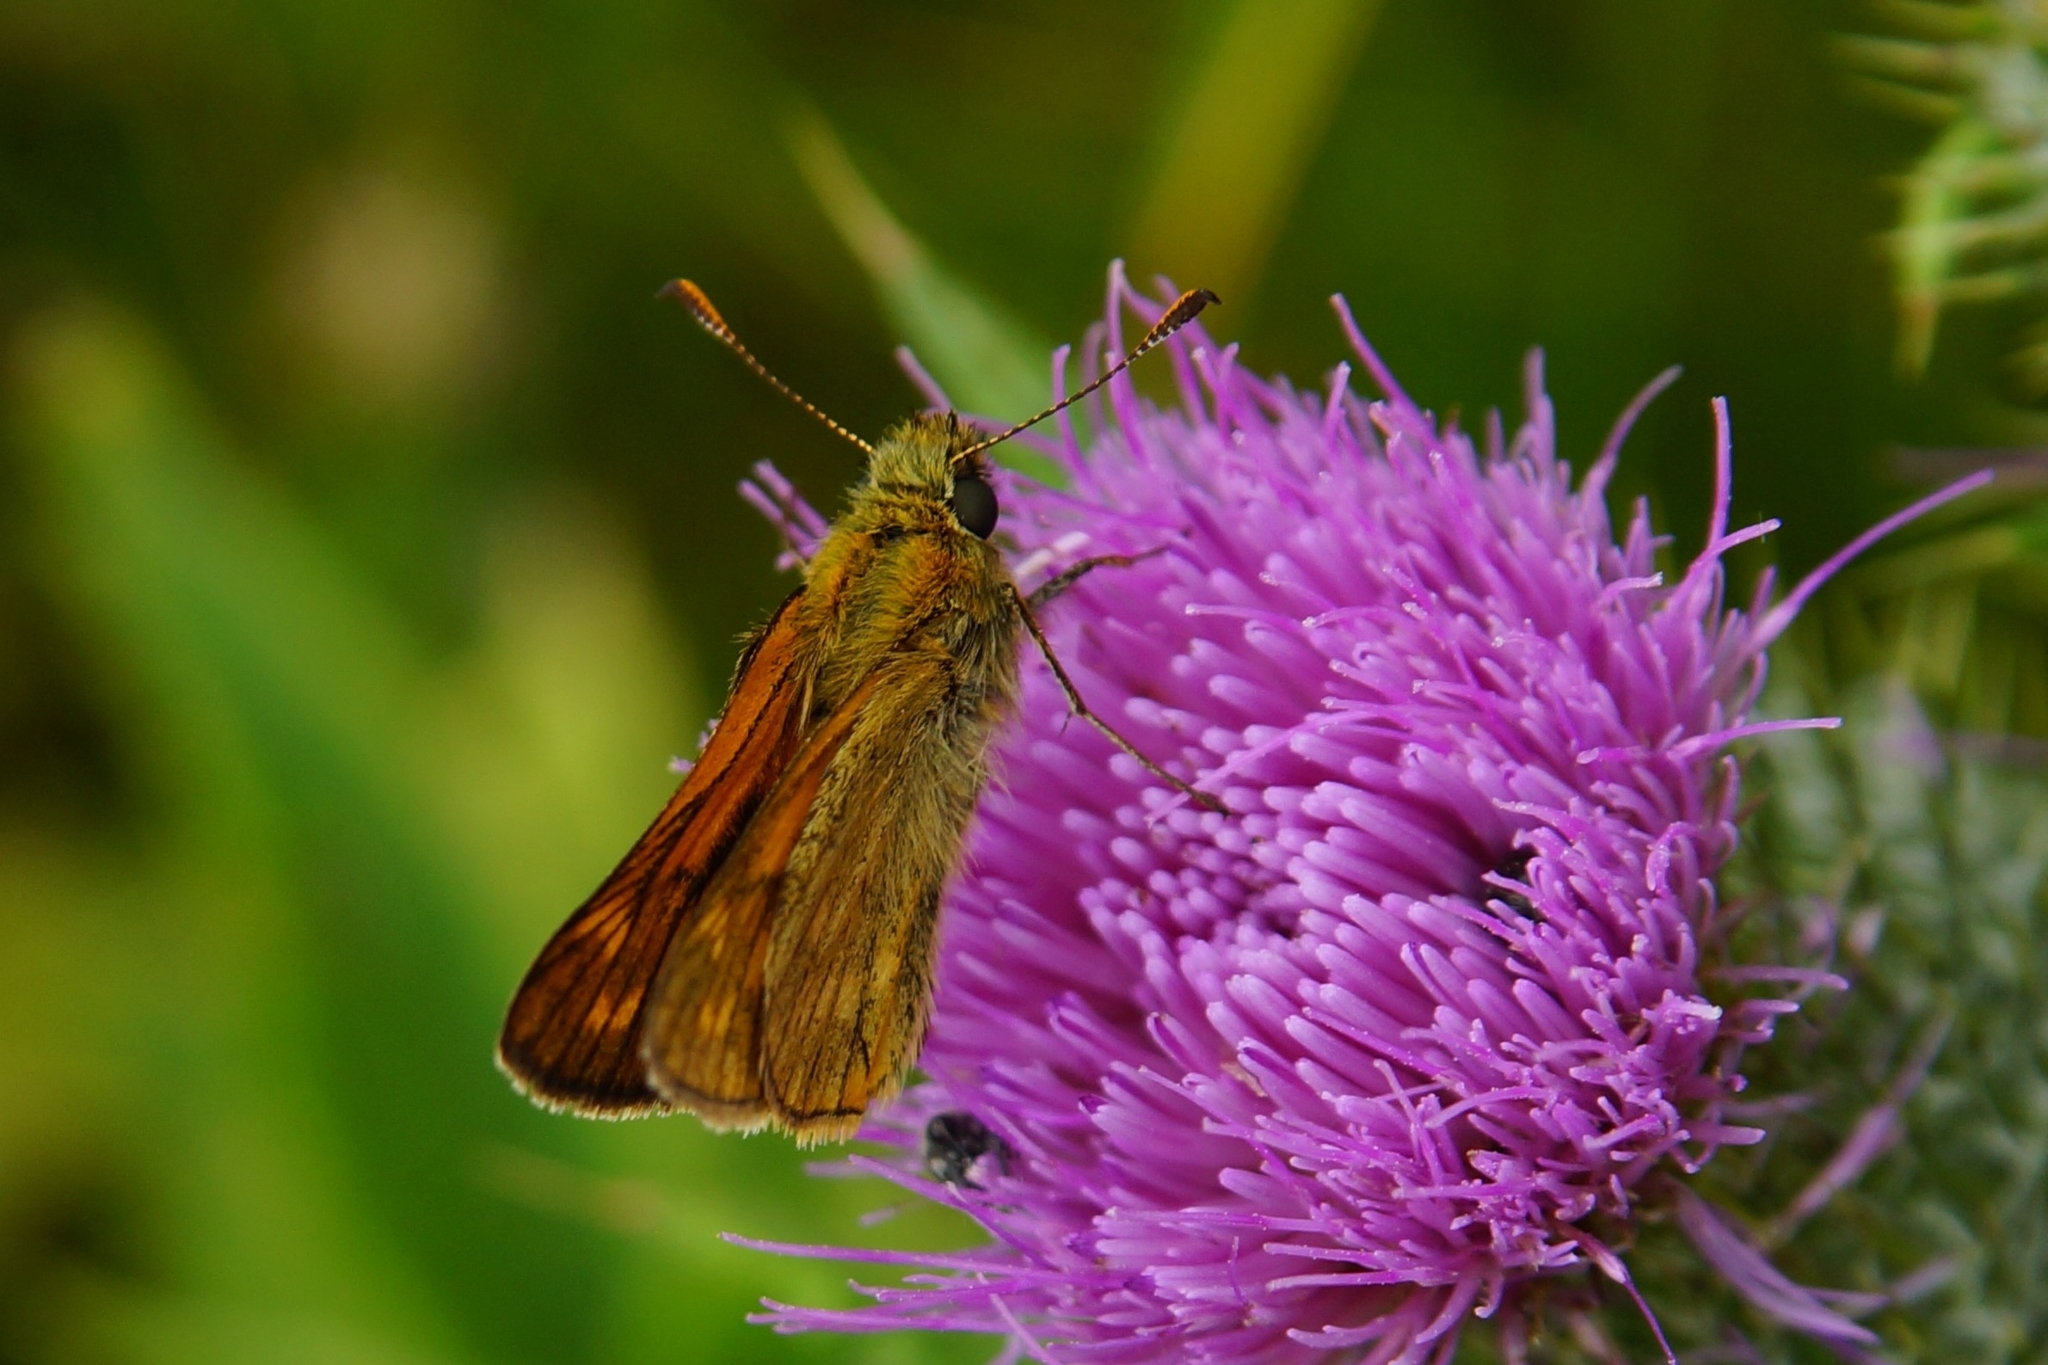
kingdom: Animalia
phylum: Arthropoda
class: Insecta
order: Lepidoptera
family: Hesperiidae
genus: Ochlodes
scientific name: Ochlodes venata
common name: Large skipper
